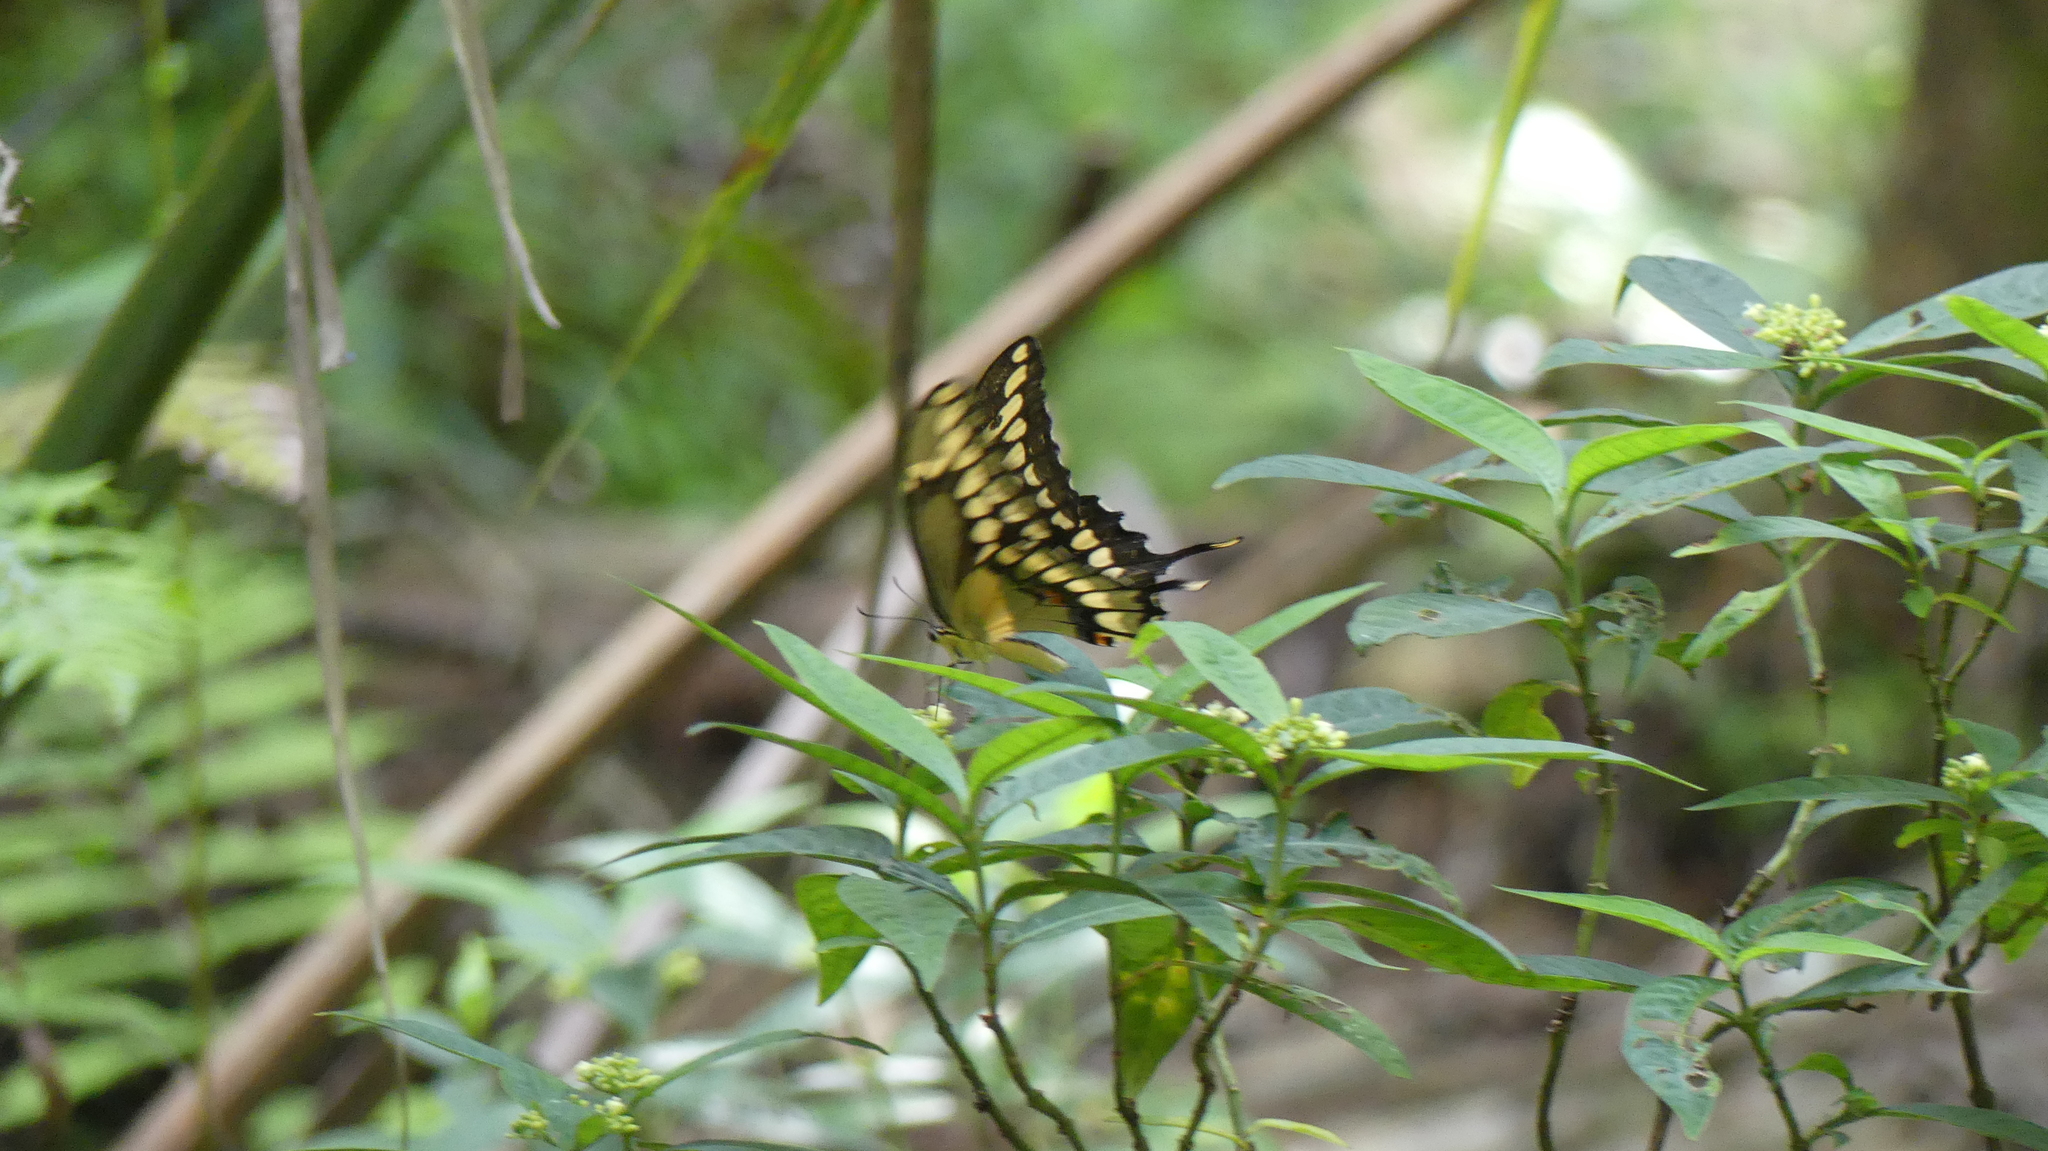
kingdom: Animalia
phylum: Arthropoda
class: Insecta
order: Lepidoptera
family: Papilionidae
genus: Papilio
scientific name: Papilio cresphontes
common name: Giant swallowtail
